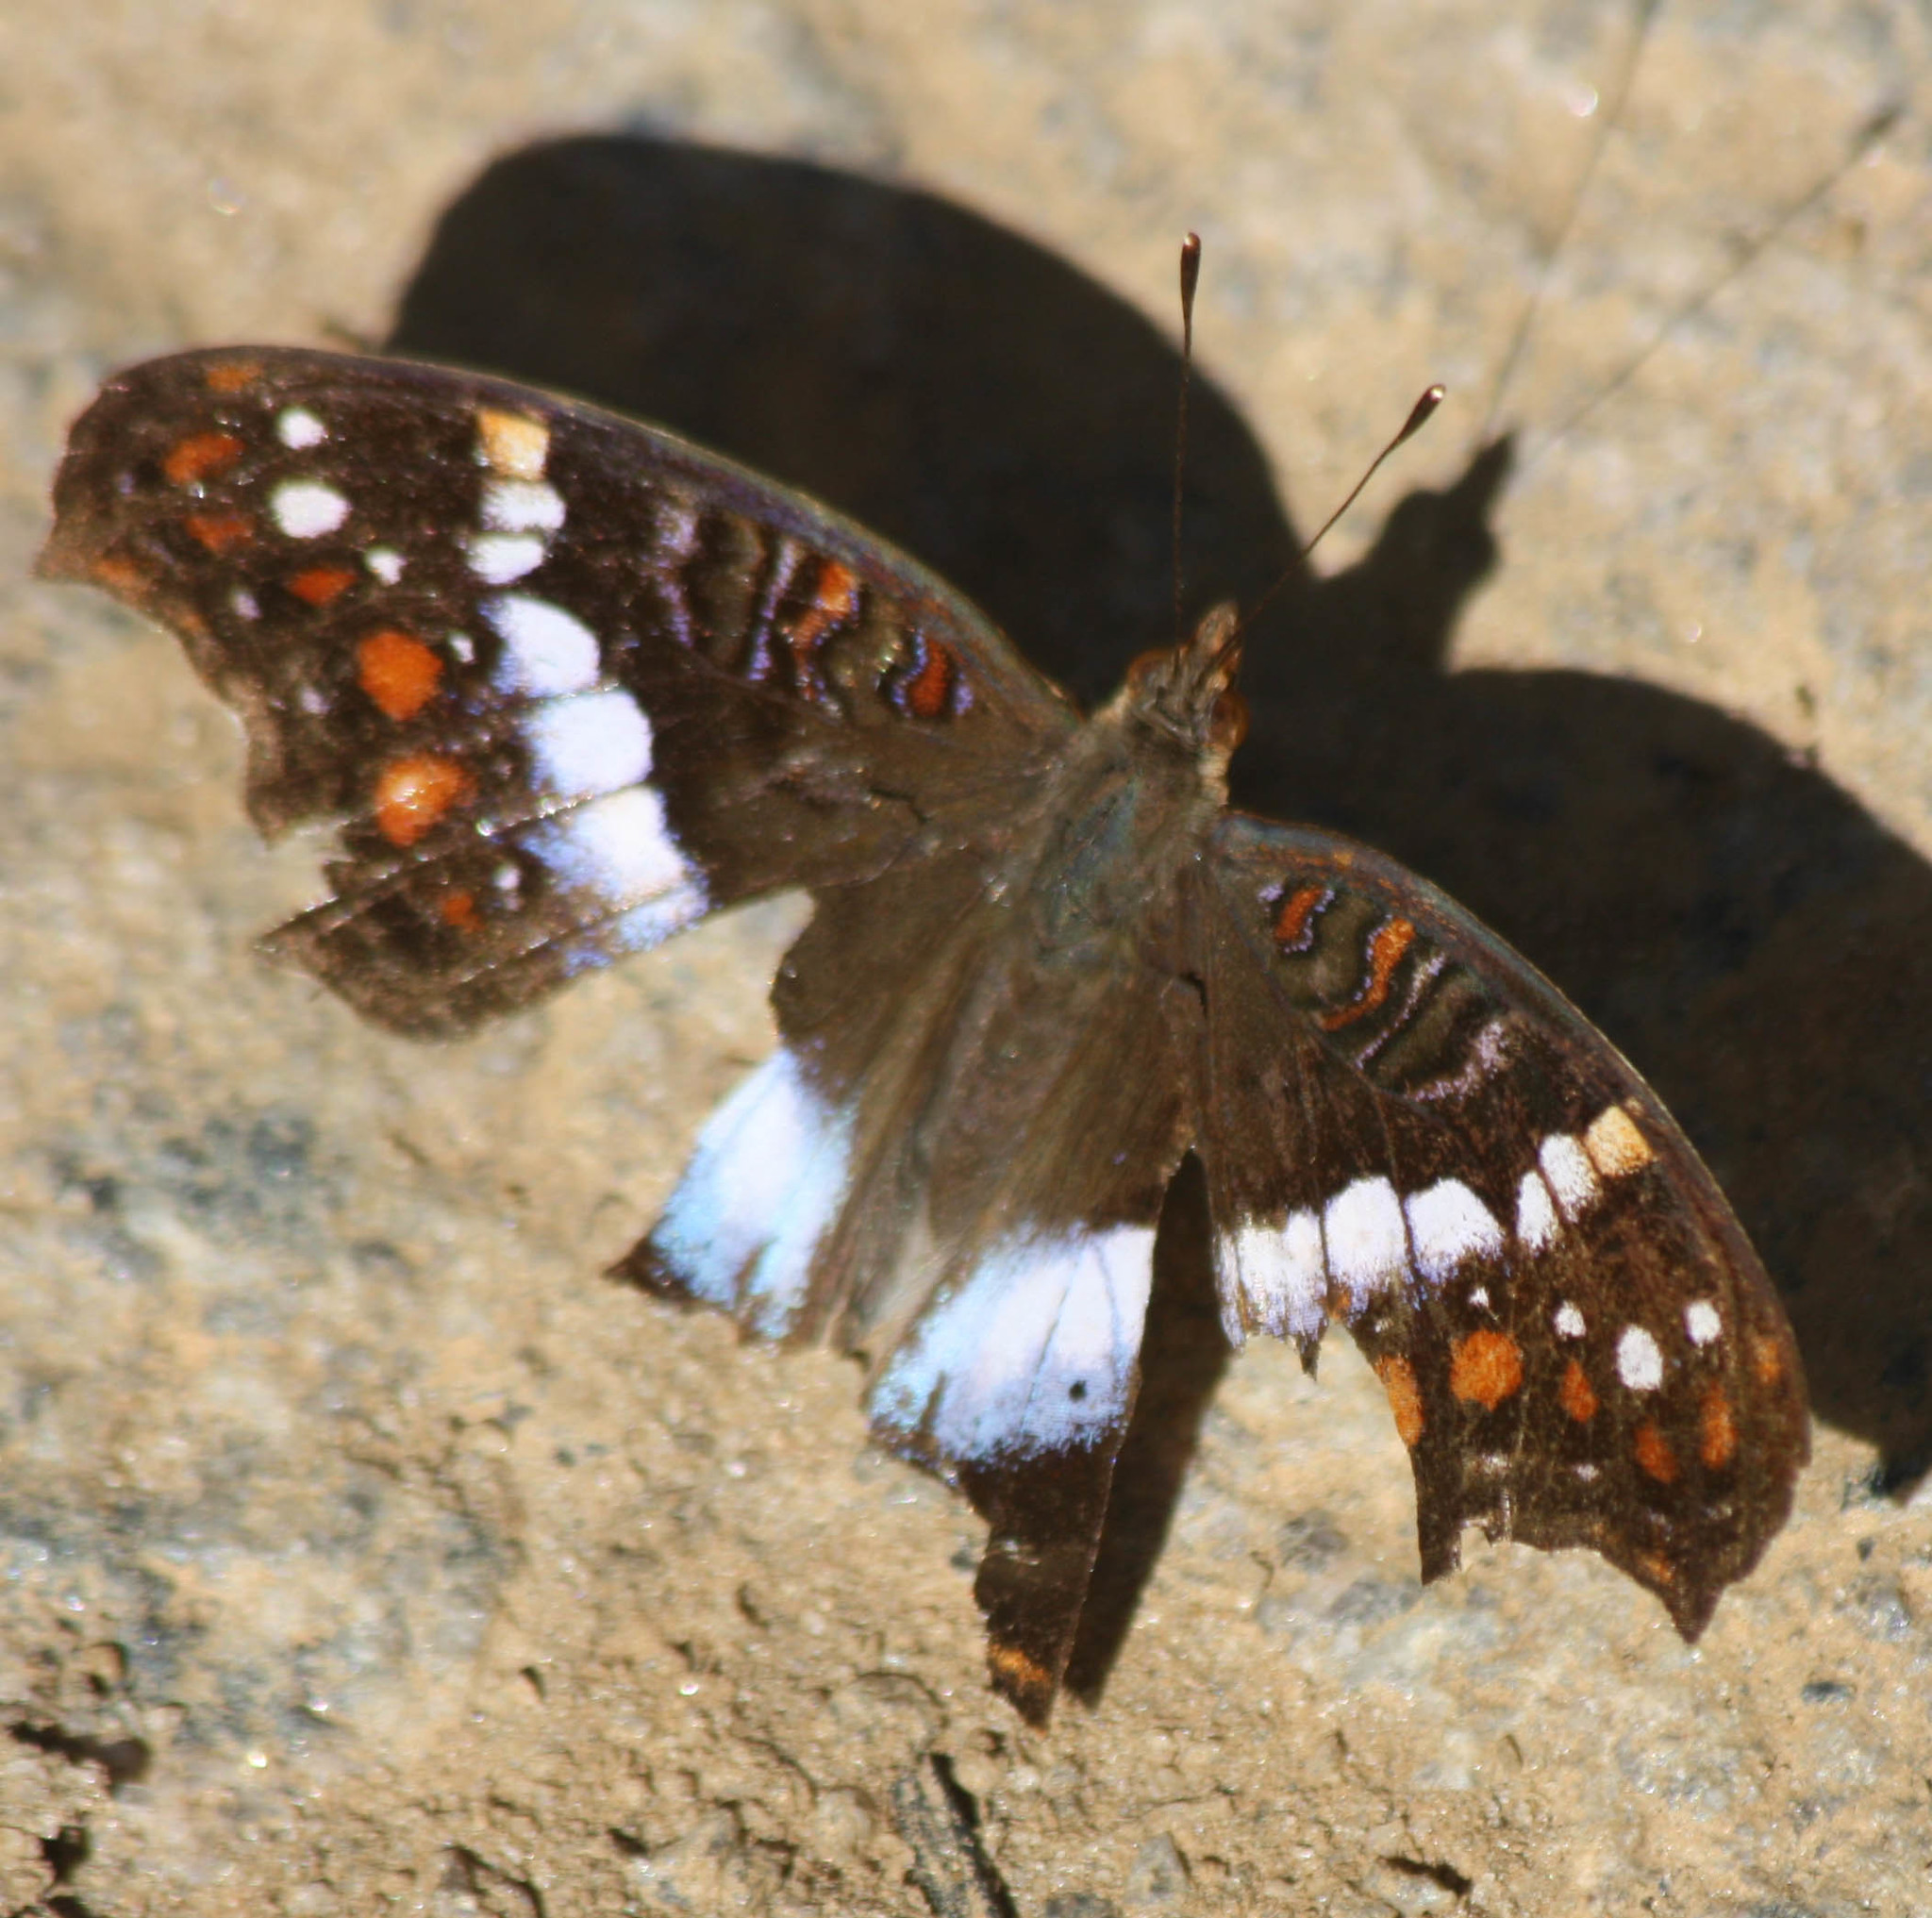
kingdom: Animalia
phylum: Arthropoda
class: Insecta
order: Lepidoptera
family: Nymphalidae
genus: Precis
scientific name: Precis andremiaja
